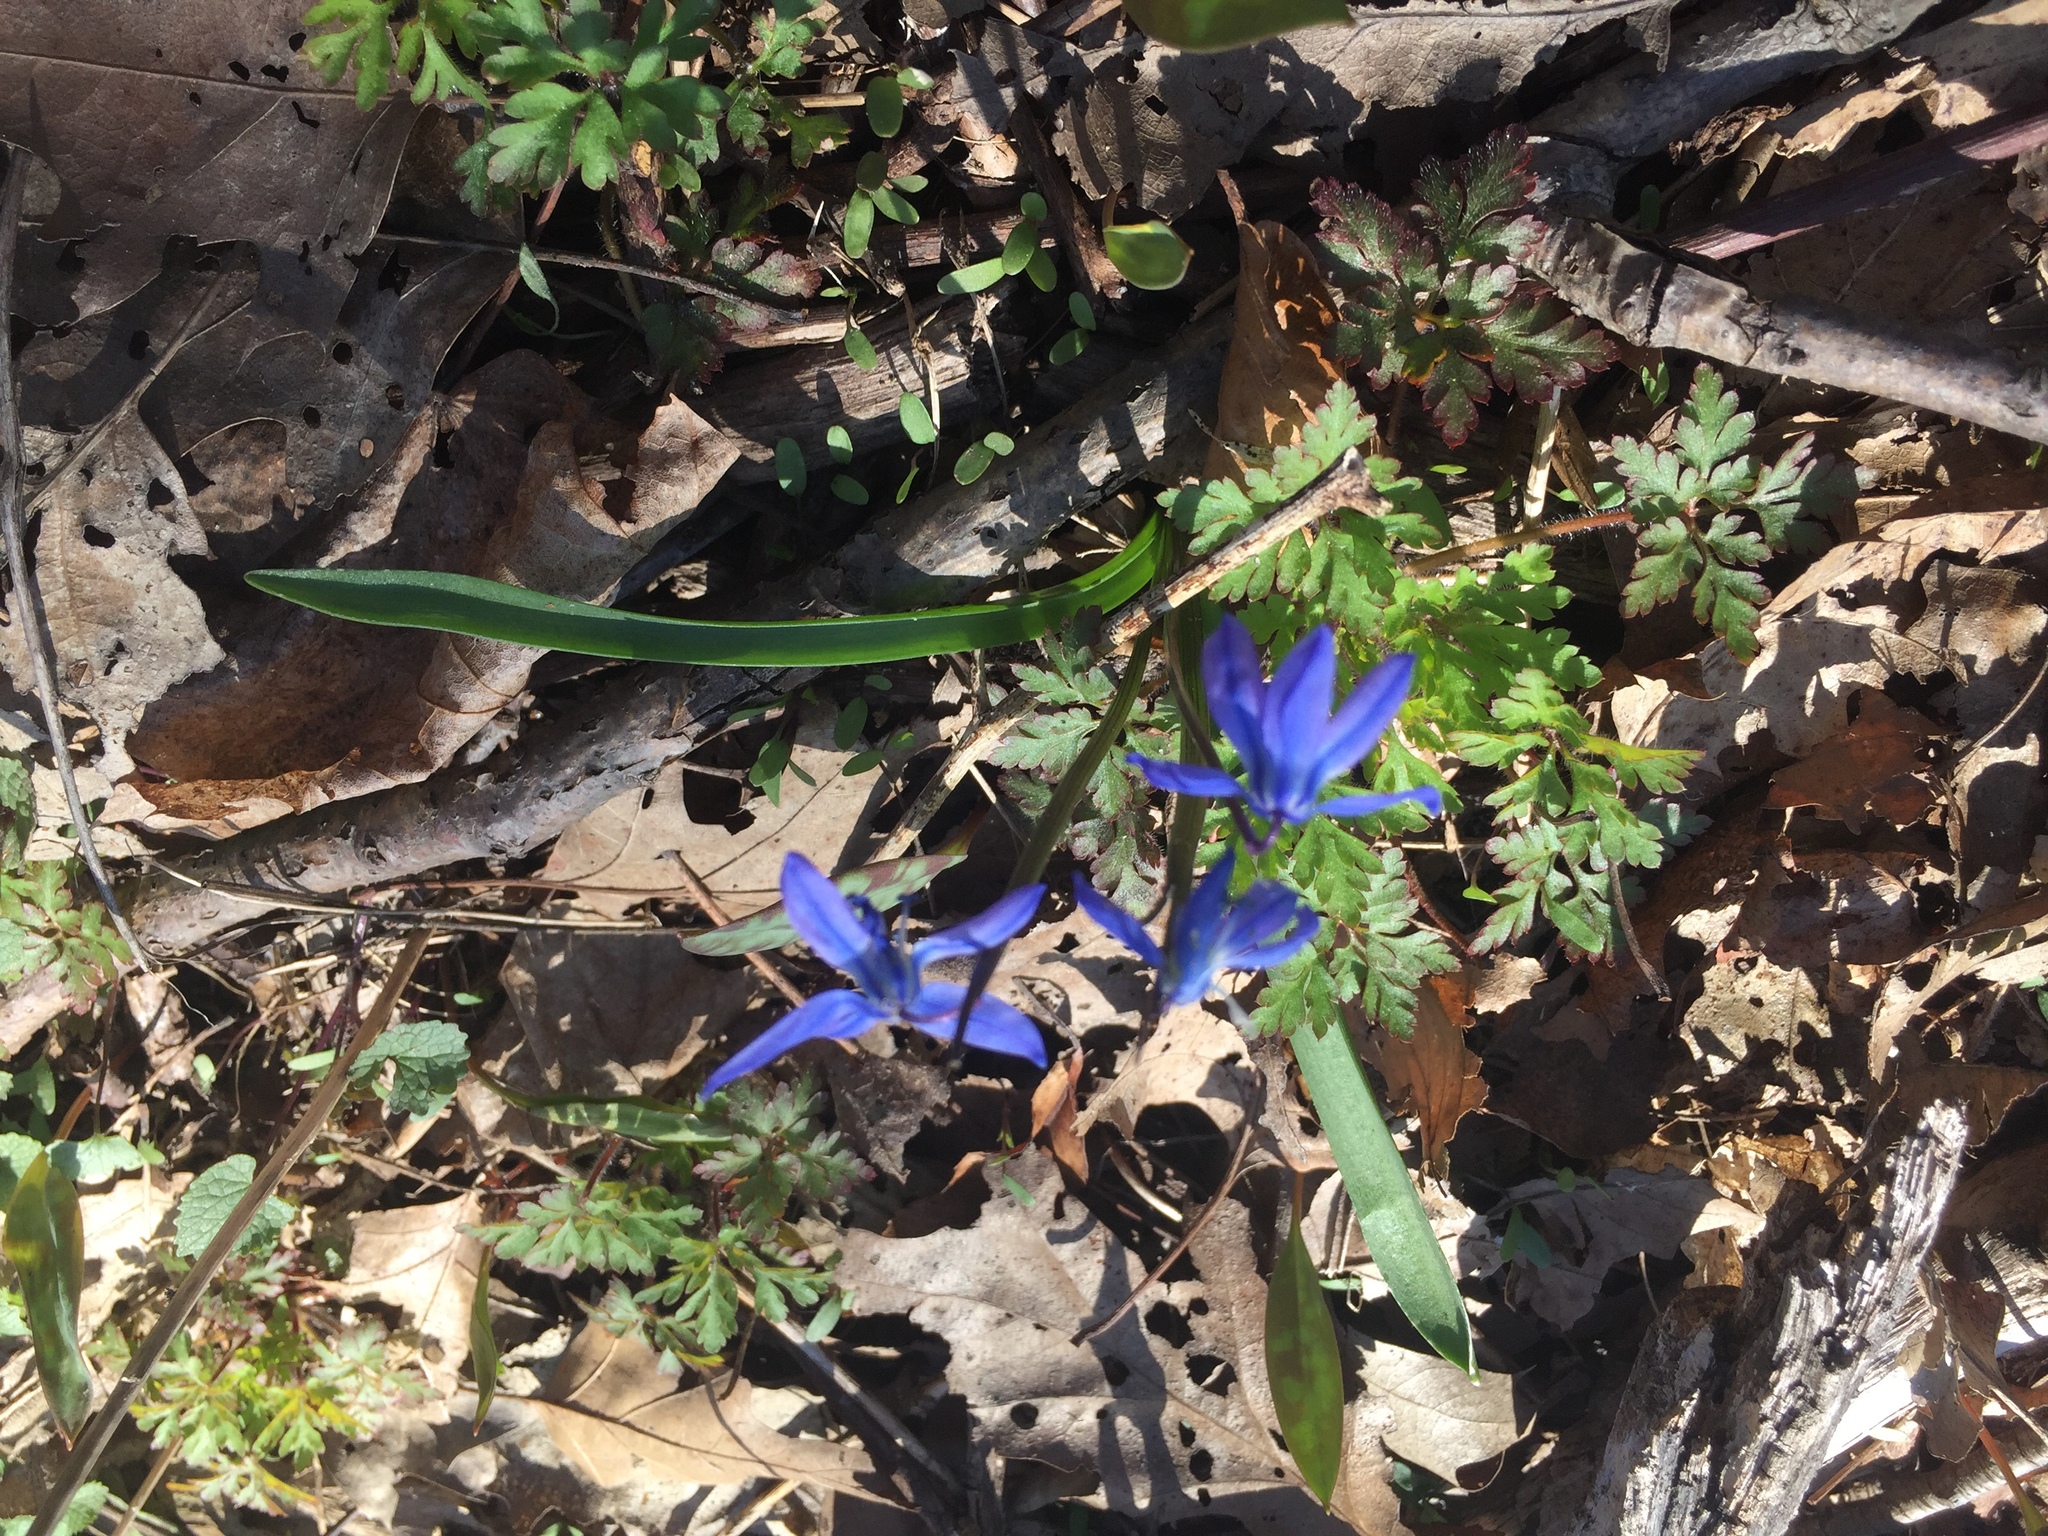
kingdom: Plantae
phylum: Tracheophyta
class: Liliopsida
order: Asparagales
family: Asparagaceae
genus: Scilla
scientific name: Scilla siberica
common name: Siberian squill
